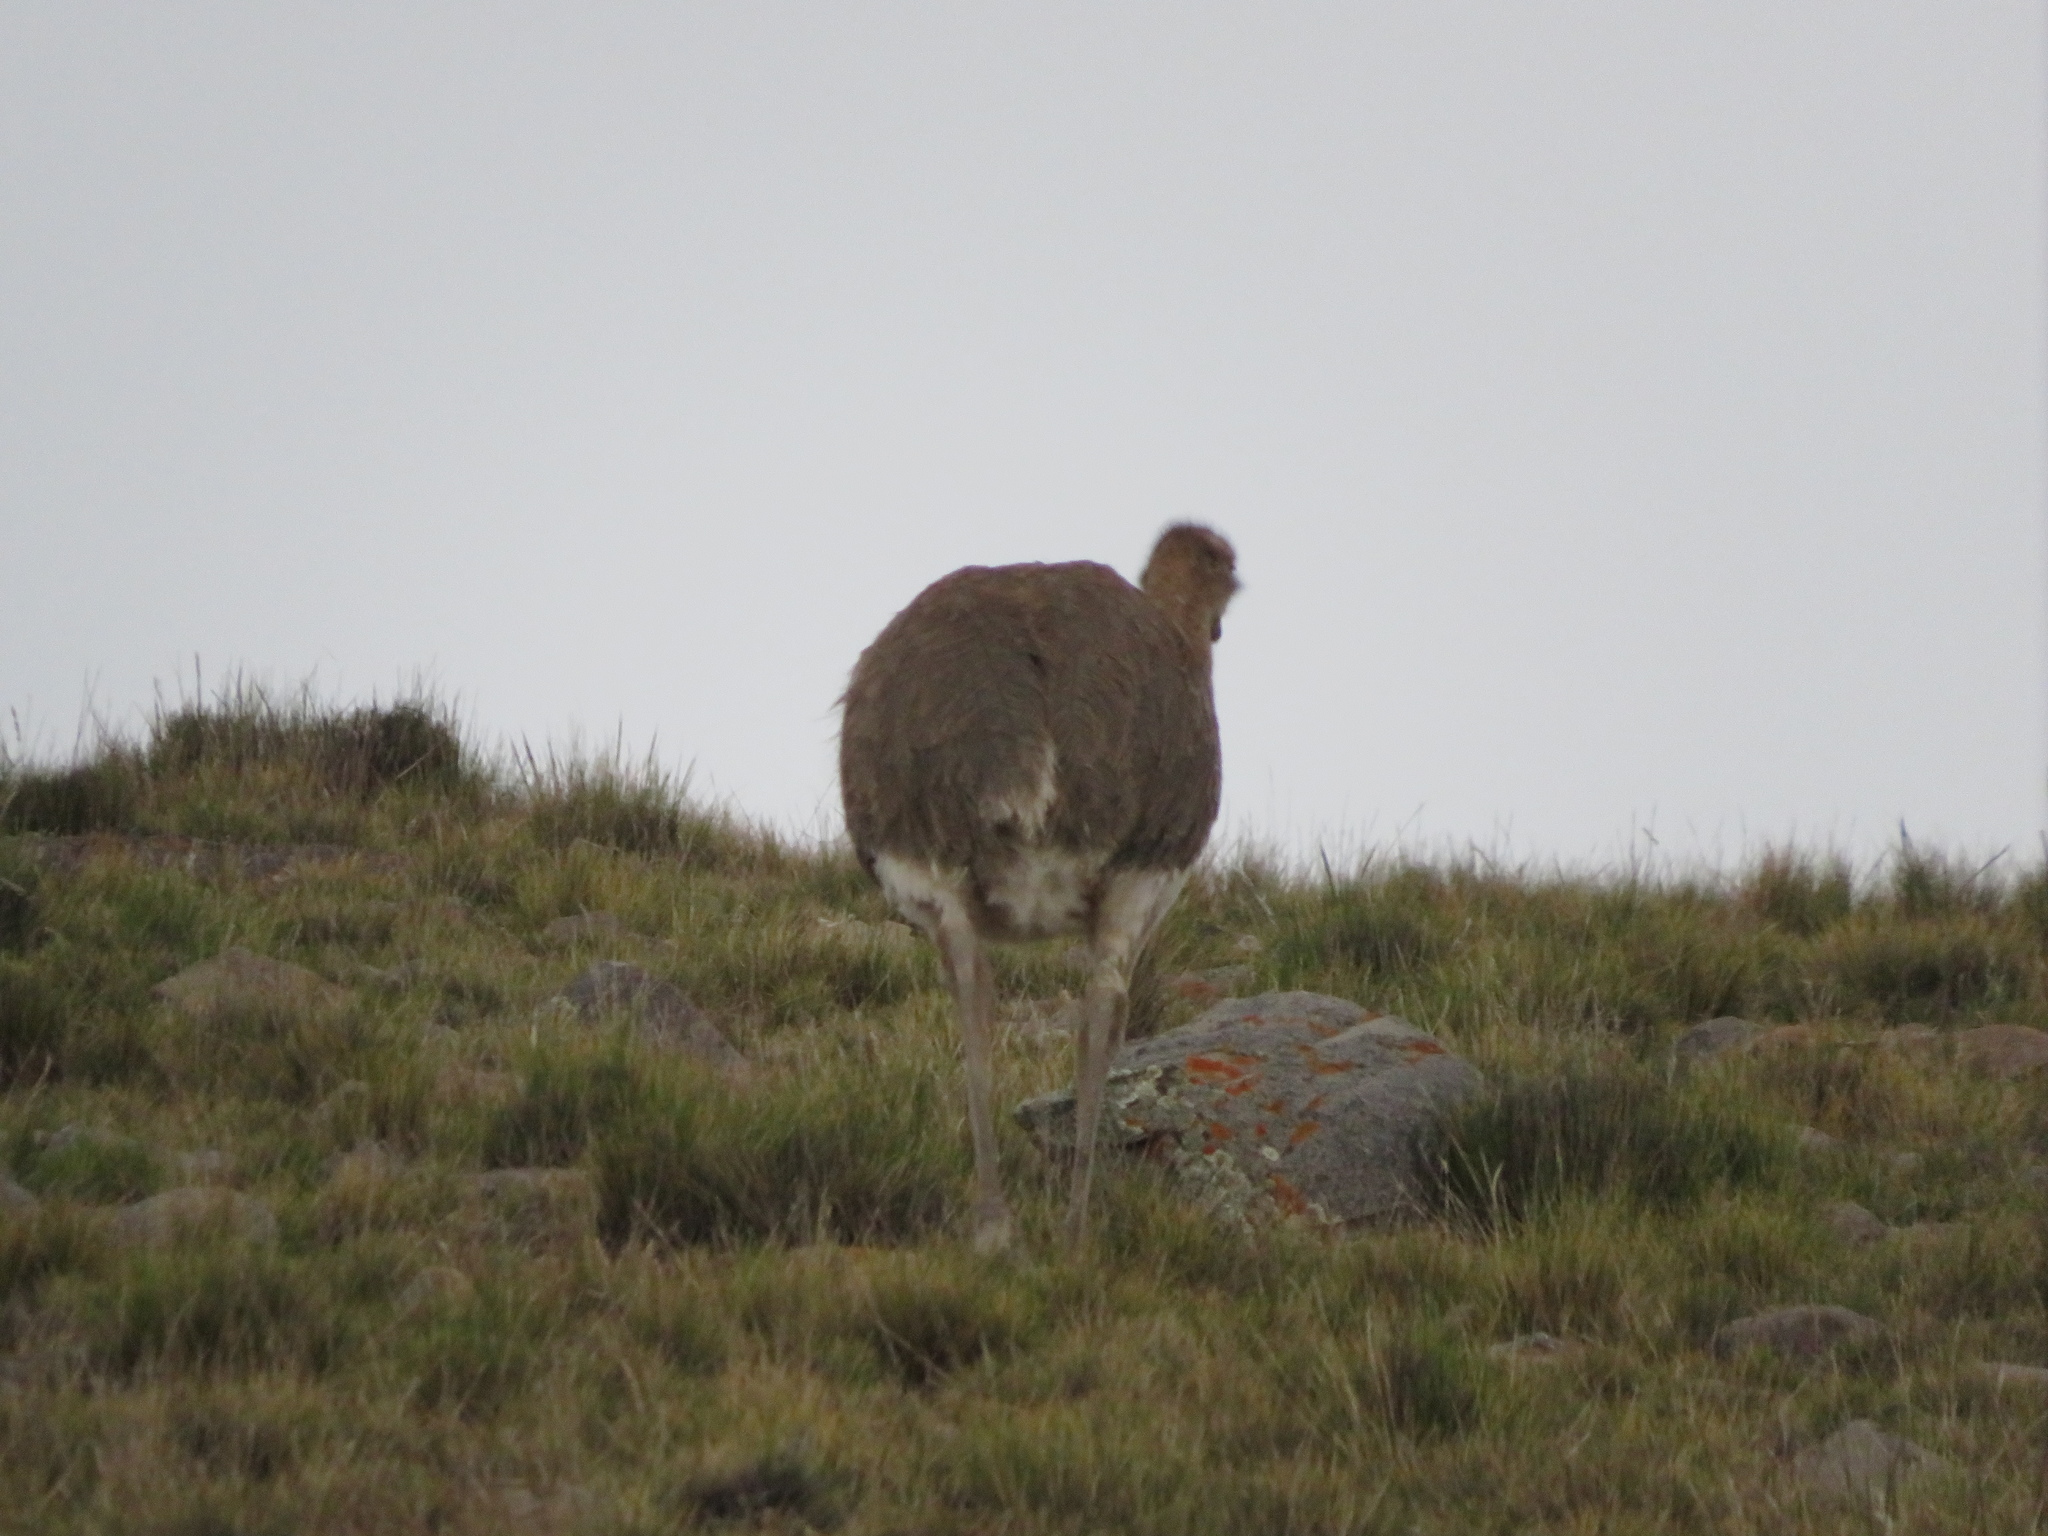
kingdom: Animalia
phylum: Chordata
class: Aves
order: Rheiformes
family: Rheidae
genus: Rhea
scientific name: Rhea pennata
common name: Lesser rhea
